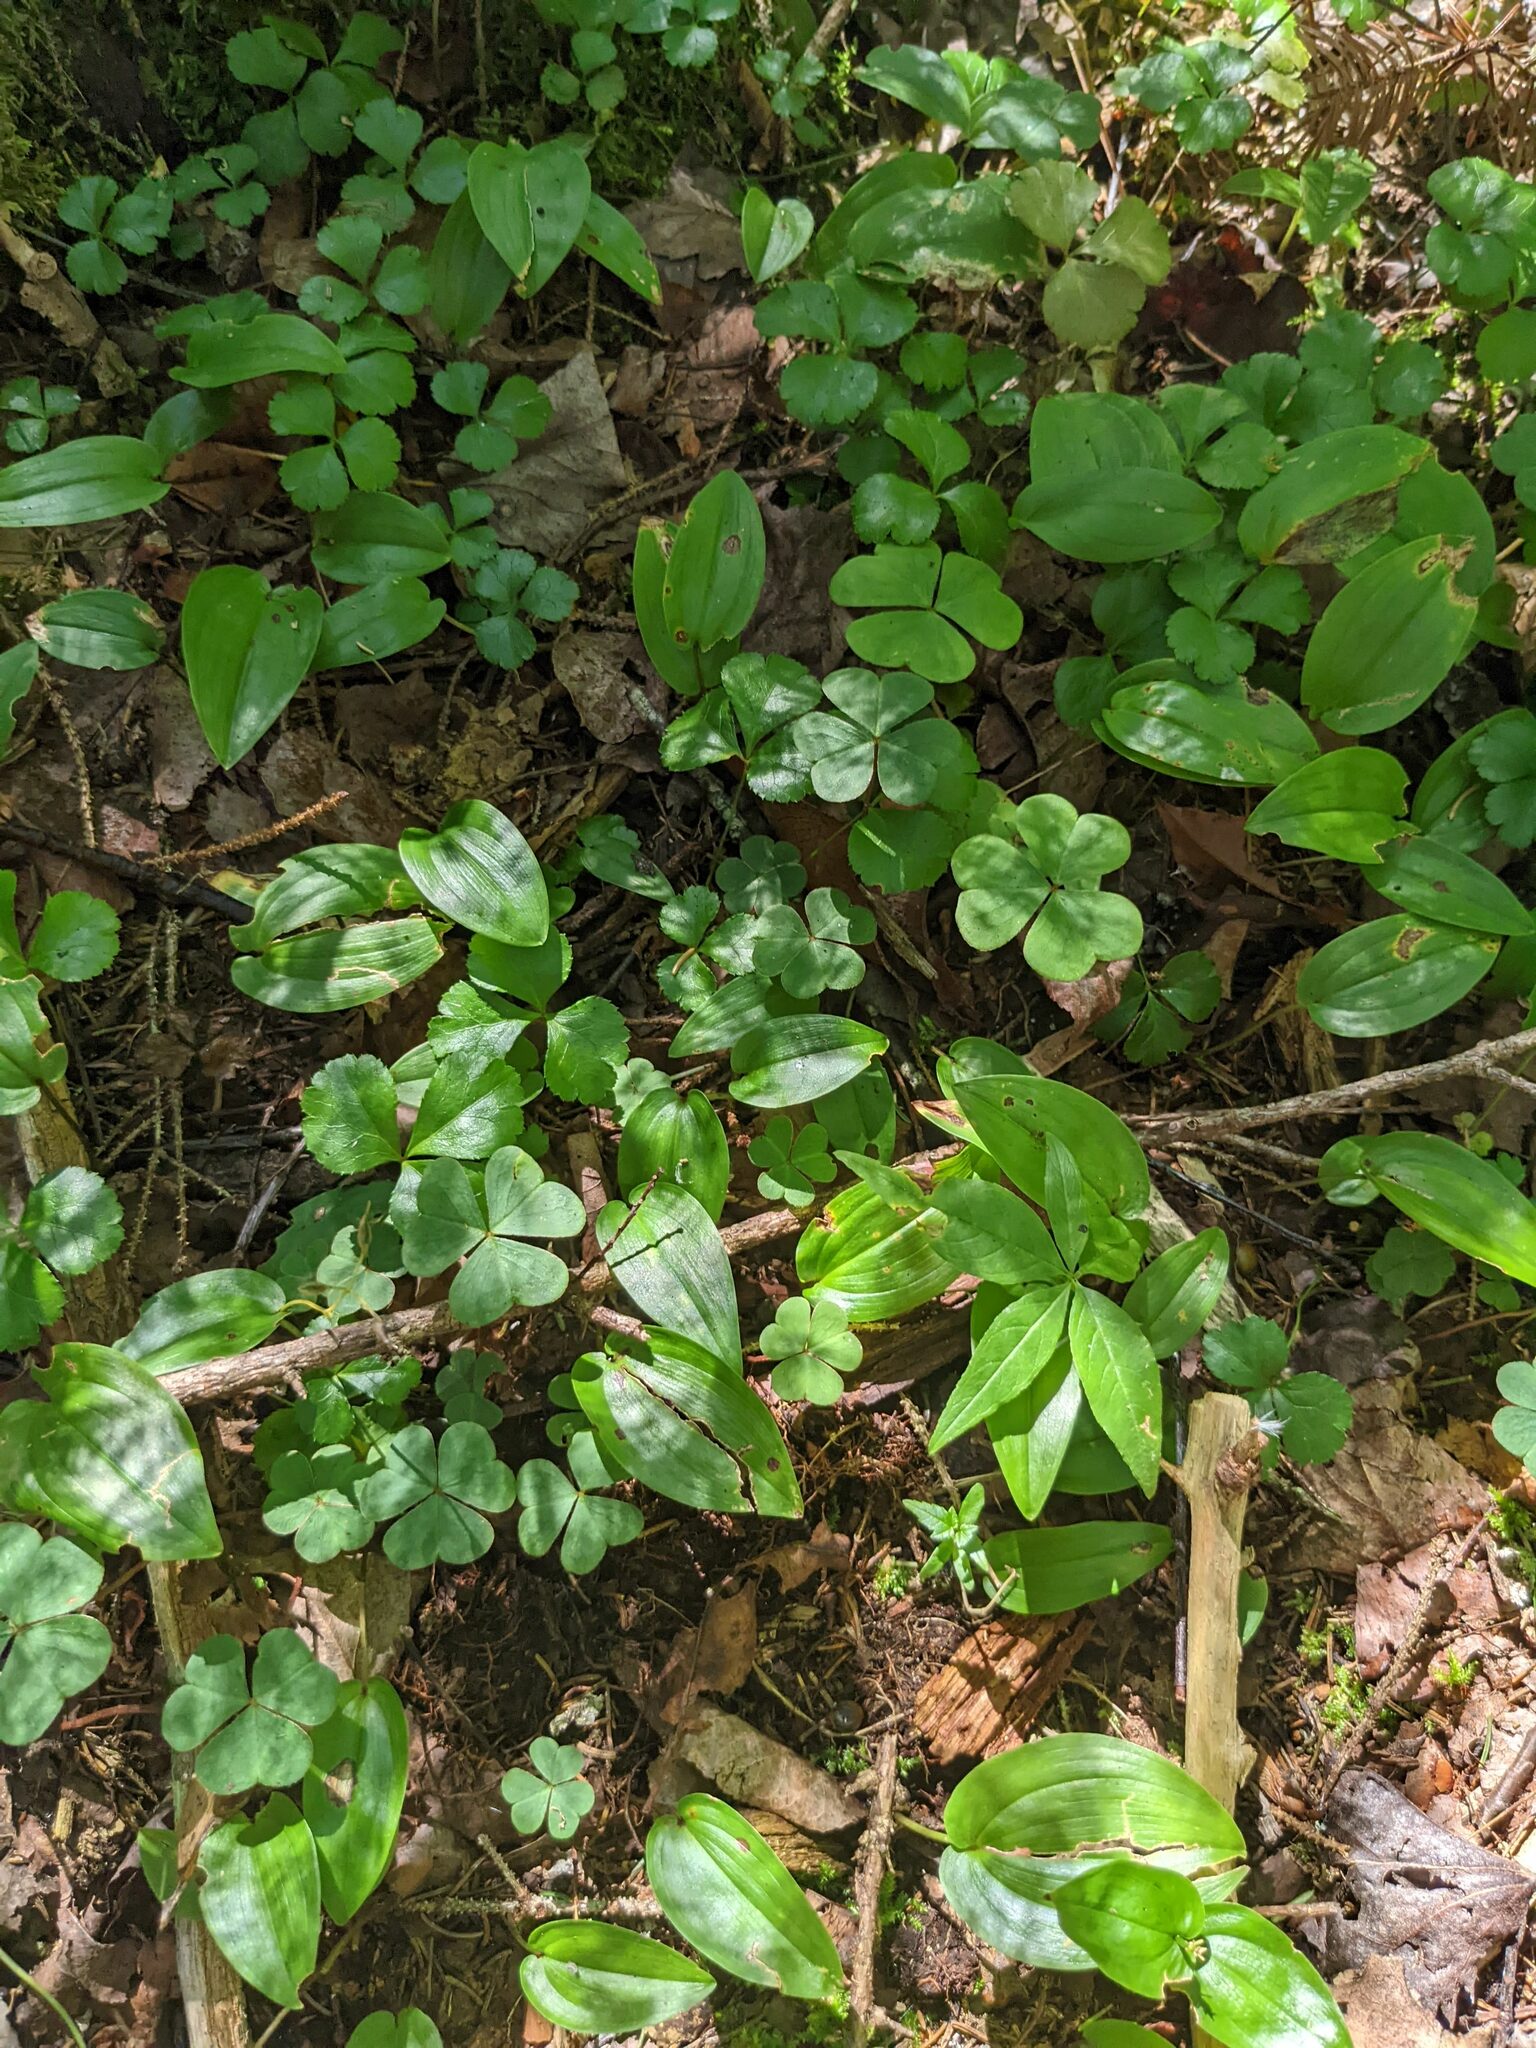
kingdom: Plantae
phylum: Tracheophyta
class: Liliopsida
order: Asparagales
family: Asparagaceae
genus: Maianthemum
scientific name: Maianthemum canadense
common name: False lily-of-the-valley
